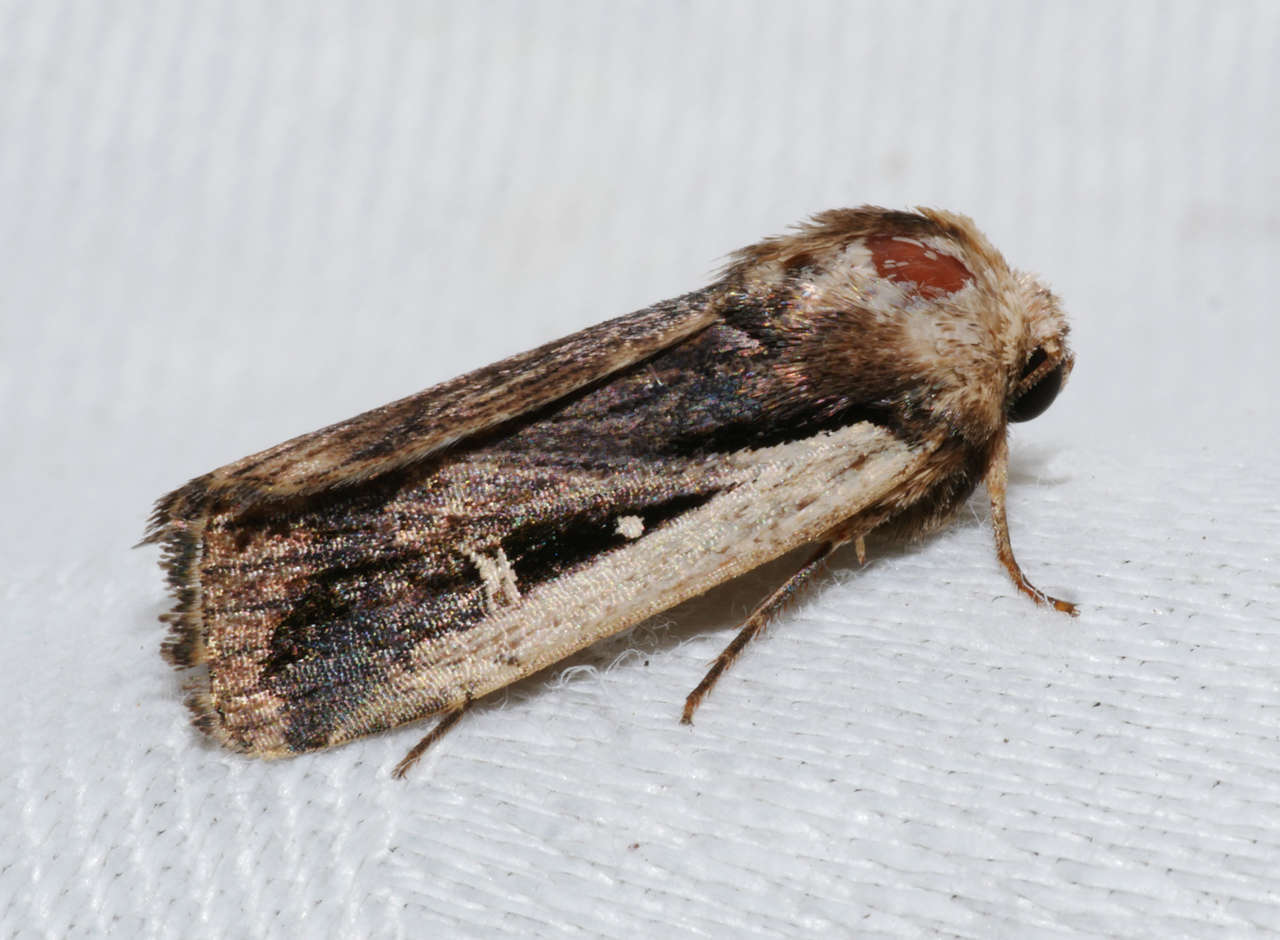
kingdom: Animalia
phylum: Arthropoda
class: Insecta
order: Lepidoptera
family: Noctuidae
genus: Proteuxoa
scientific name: Proteuxoa tortisigna
